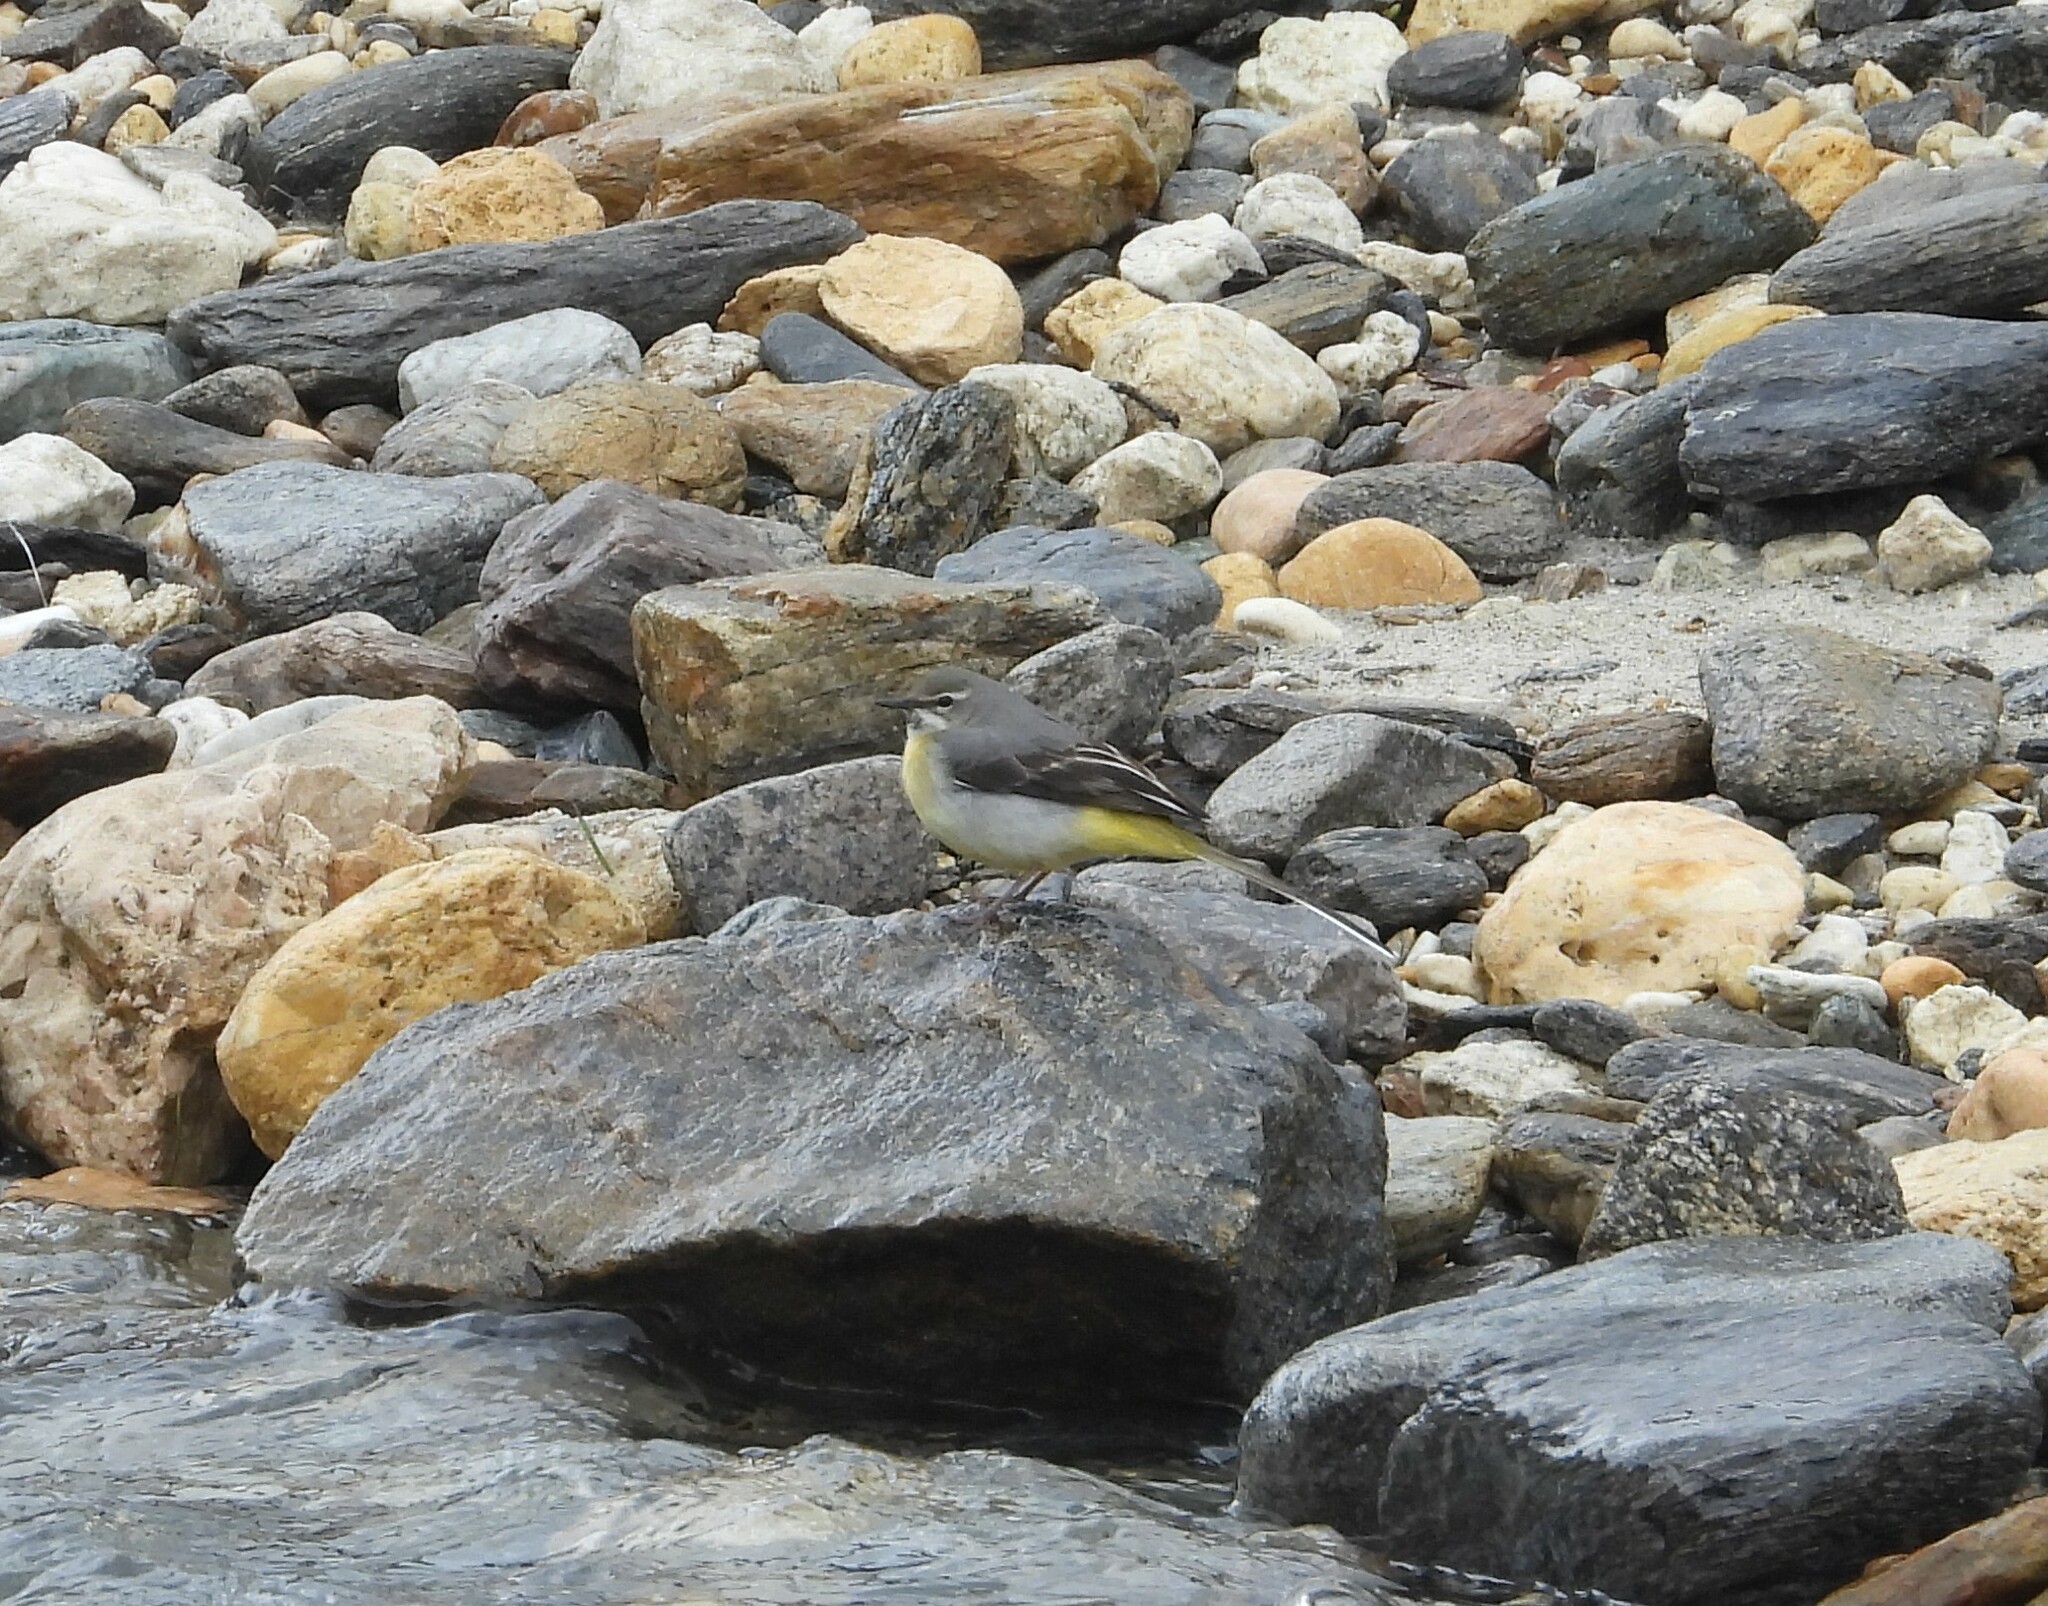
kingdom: Animalia
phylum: Chordata
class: Aves
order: Passeriformes
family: Motacillidae
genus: Motacilla
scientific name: Motacilla cinerea
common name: Grey wagtail
